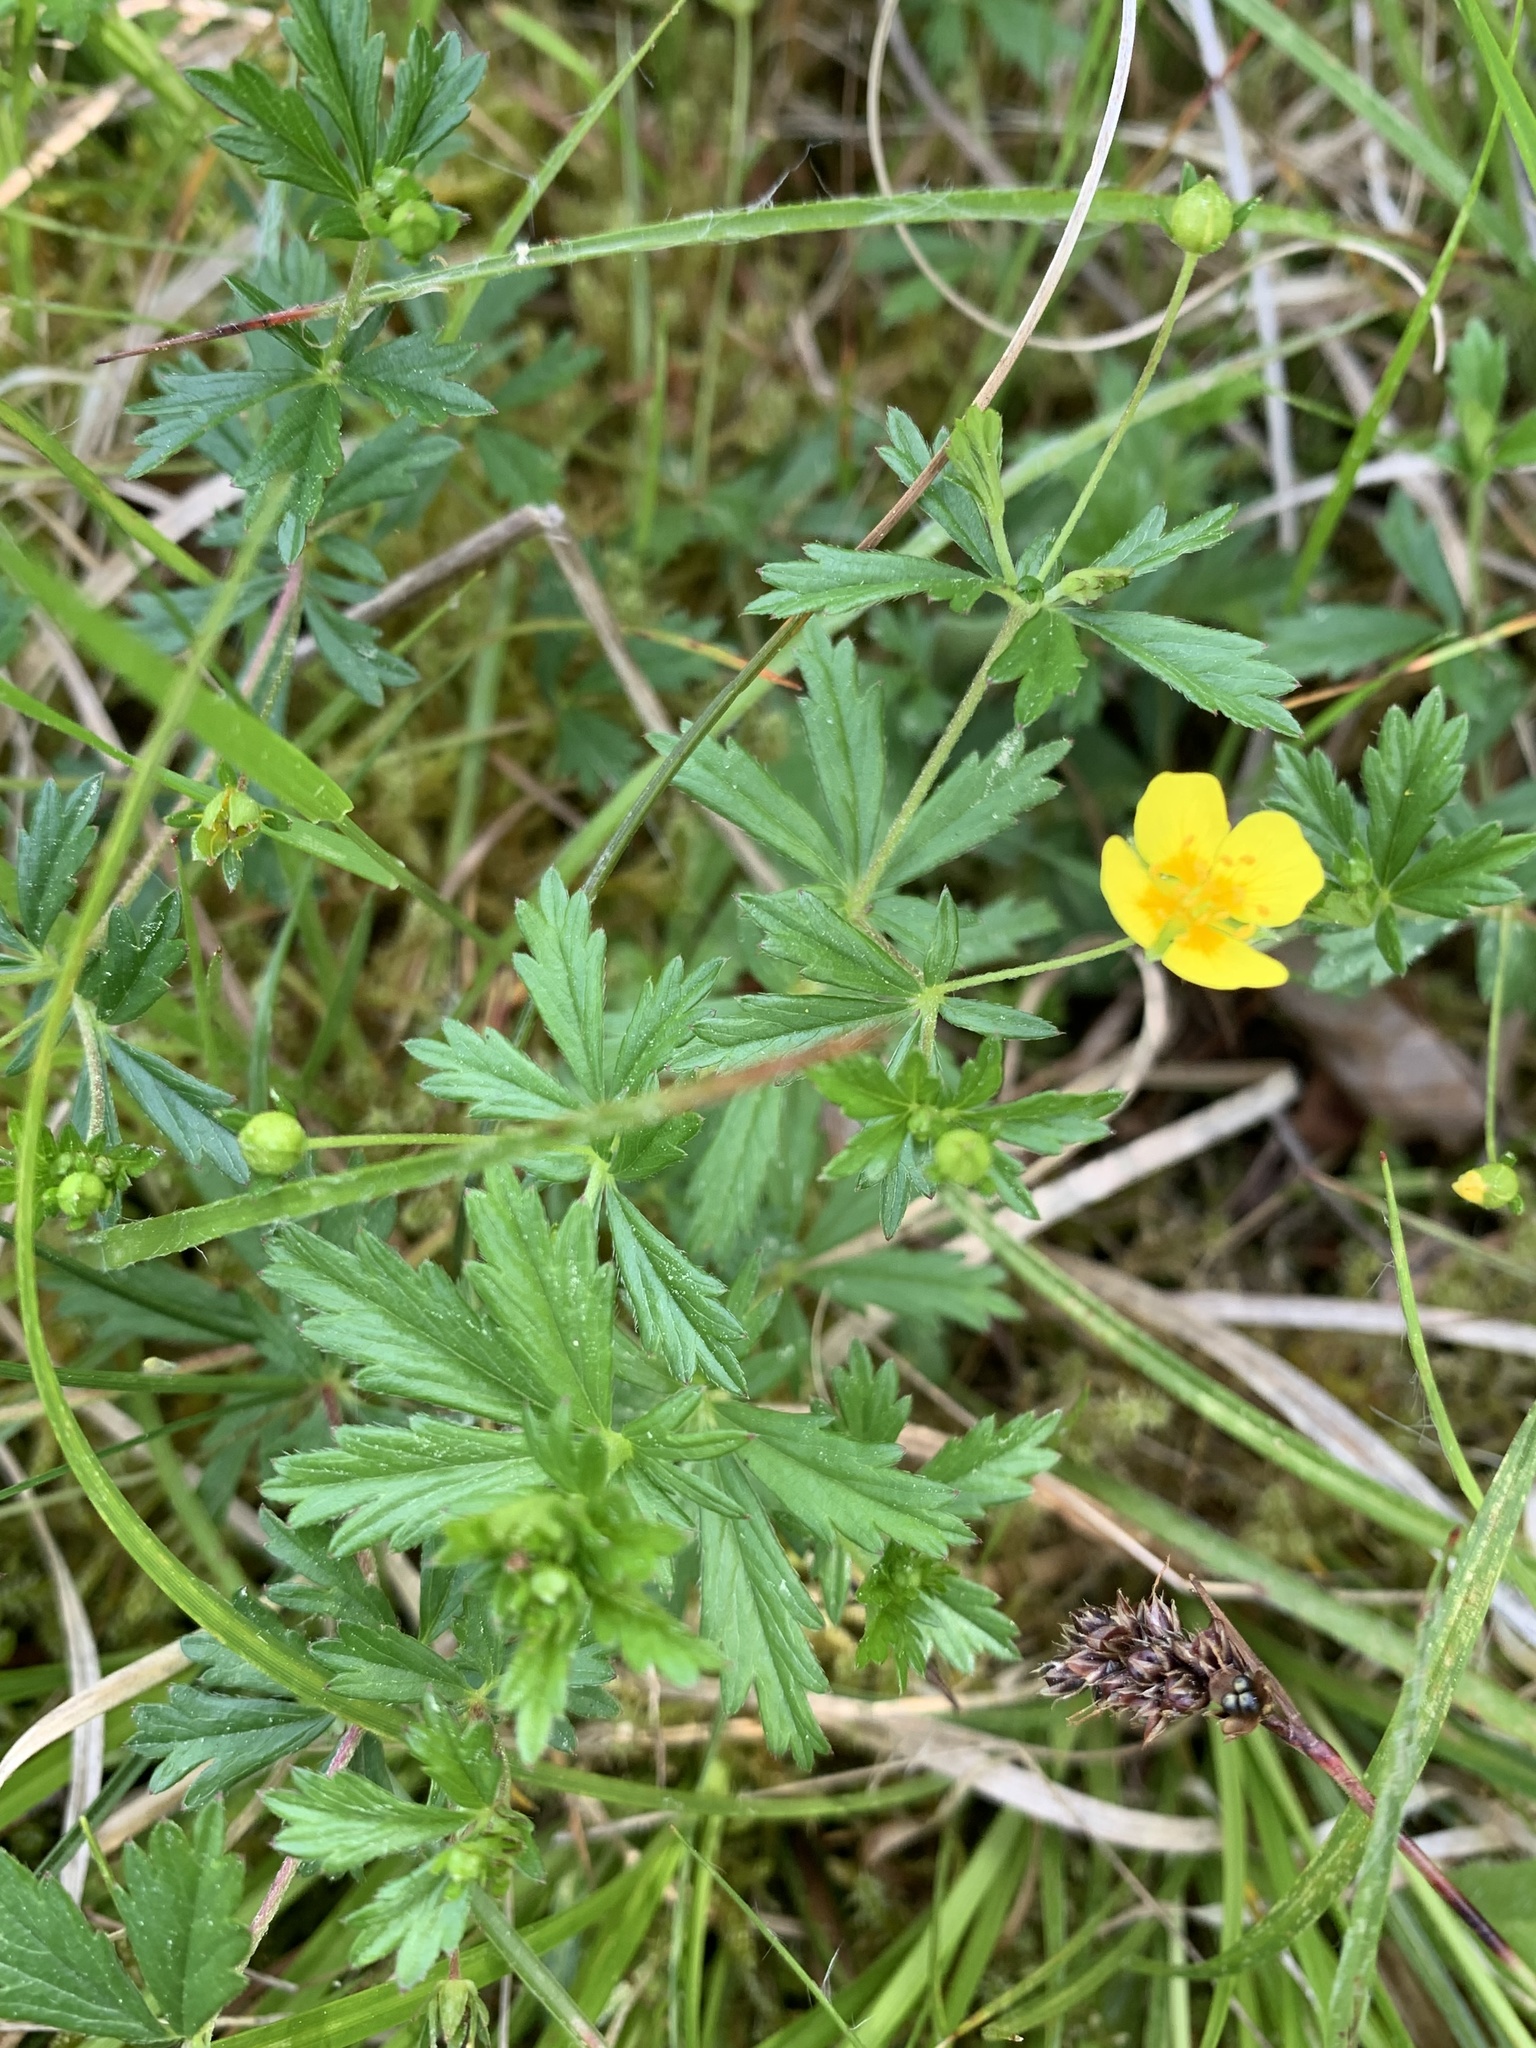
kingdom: Plantae
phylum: Tracheophyta
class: Magnoliopsida
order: Rosales
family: Rosaceae
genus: Potentilla
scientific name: Potentilla erecta
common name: Tormentil
